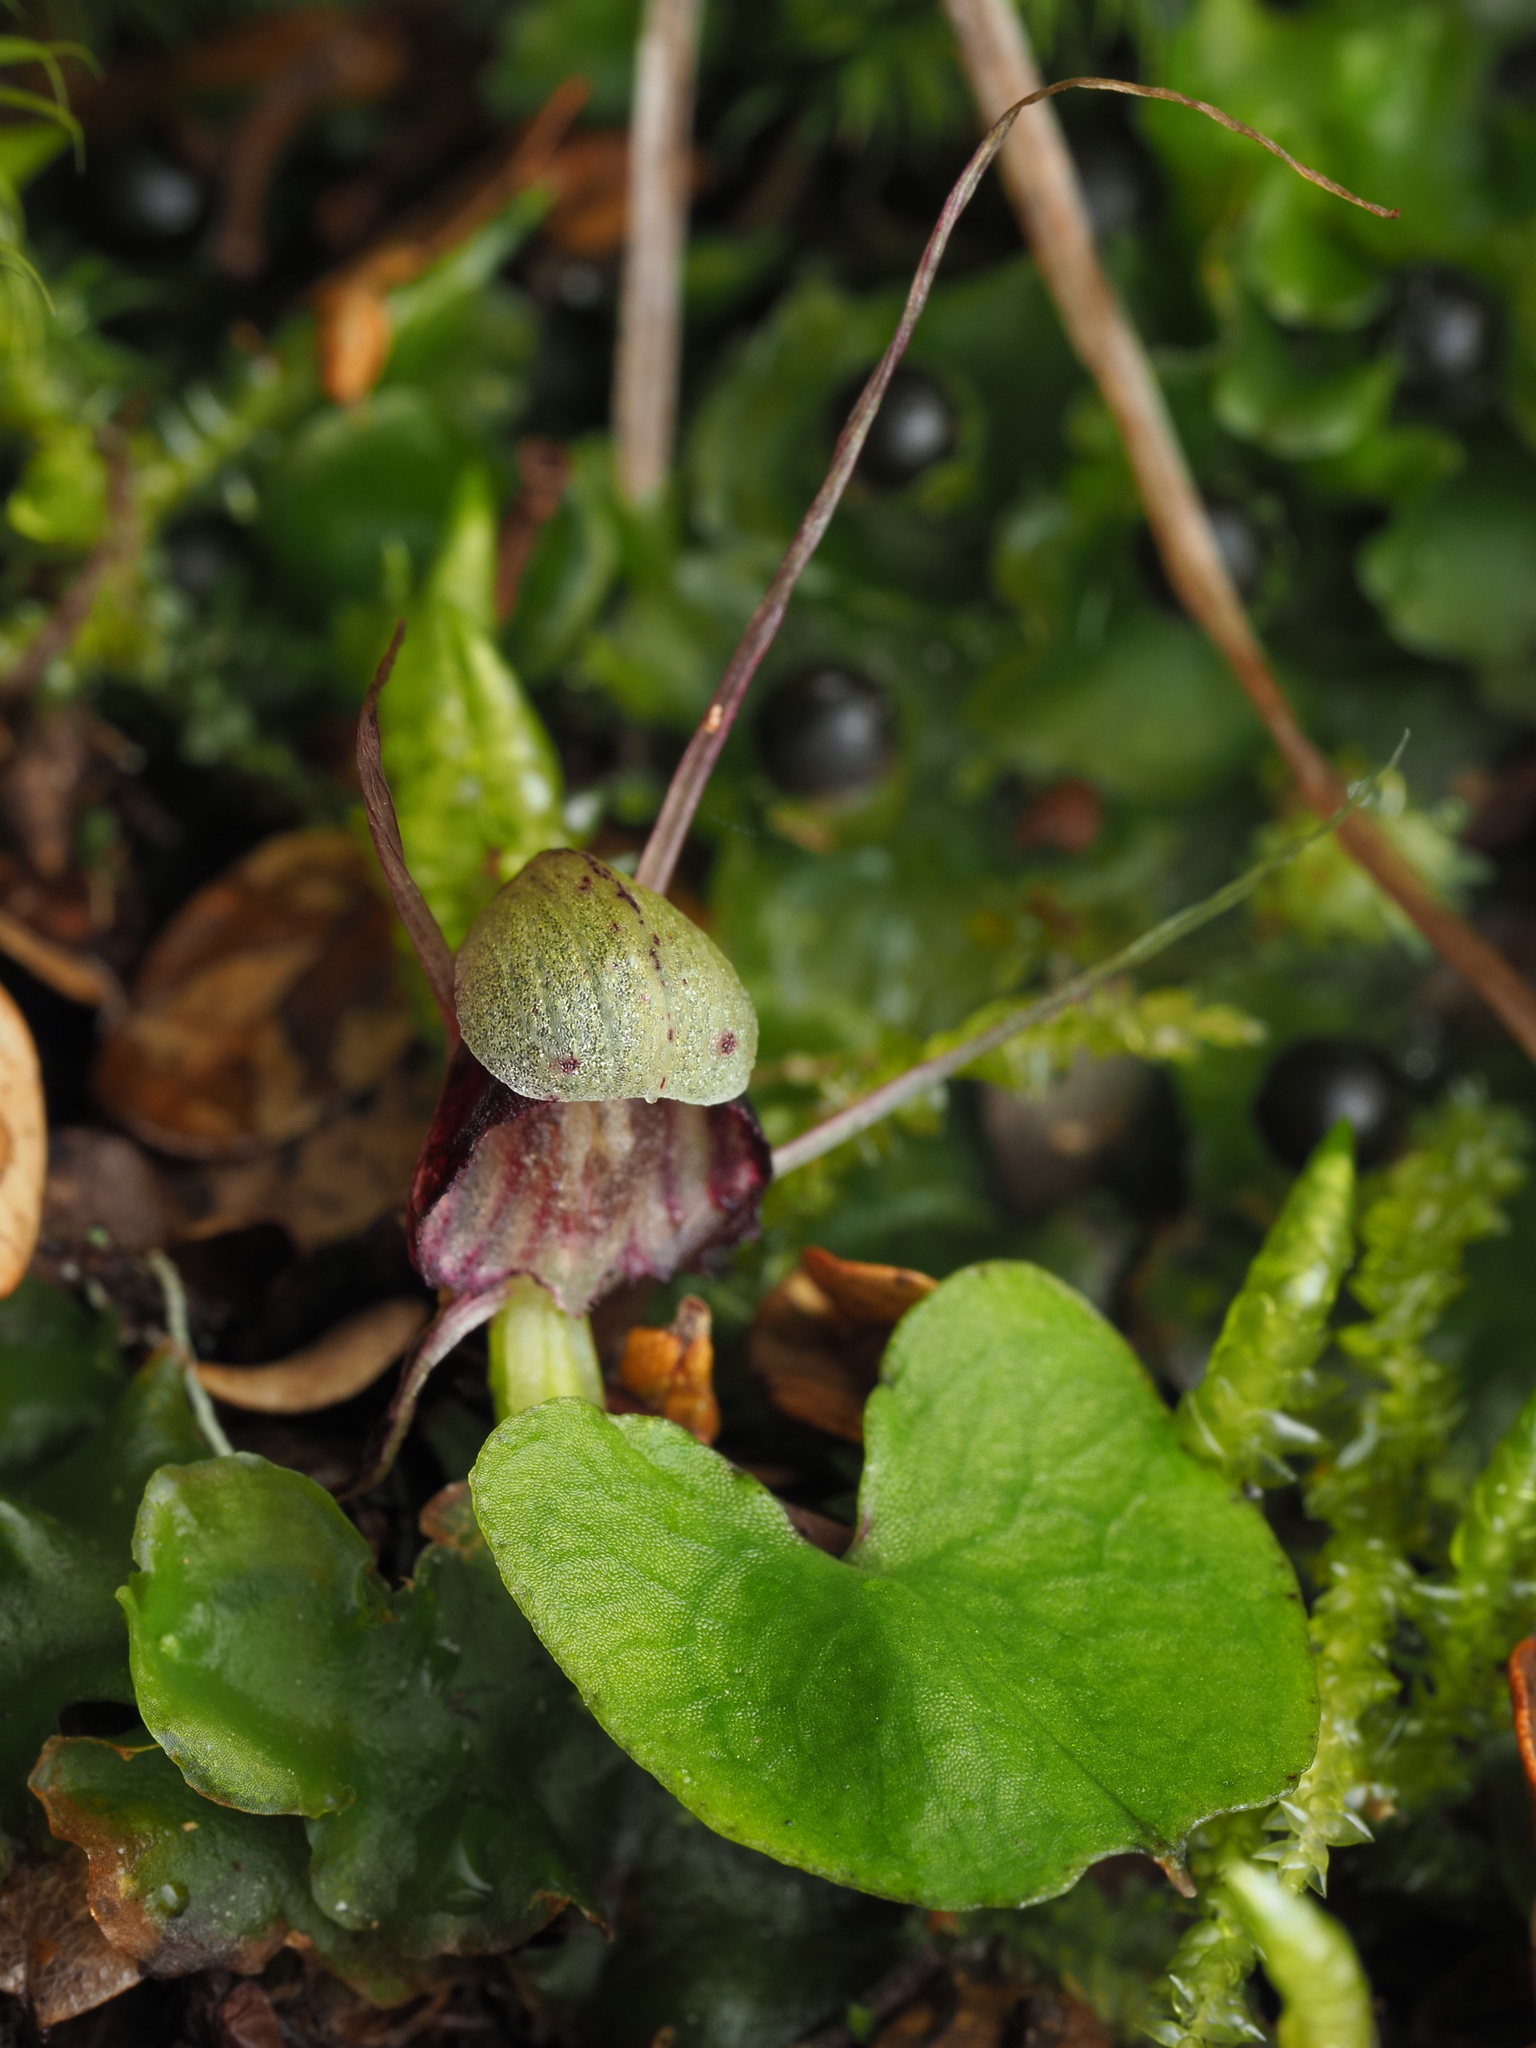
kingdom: Plantae
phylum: Tracheophyta
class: Liliopsida
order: Asparagales
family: Orchidaceae
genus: Corybas
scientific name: Corybas vitreus
